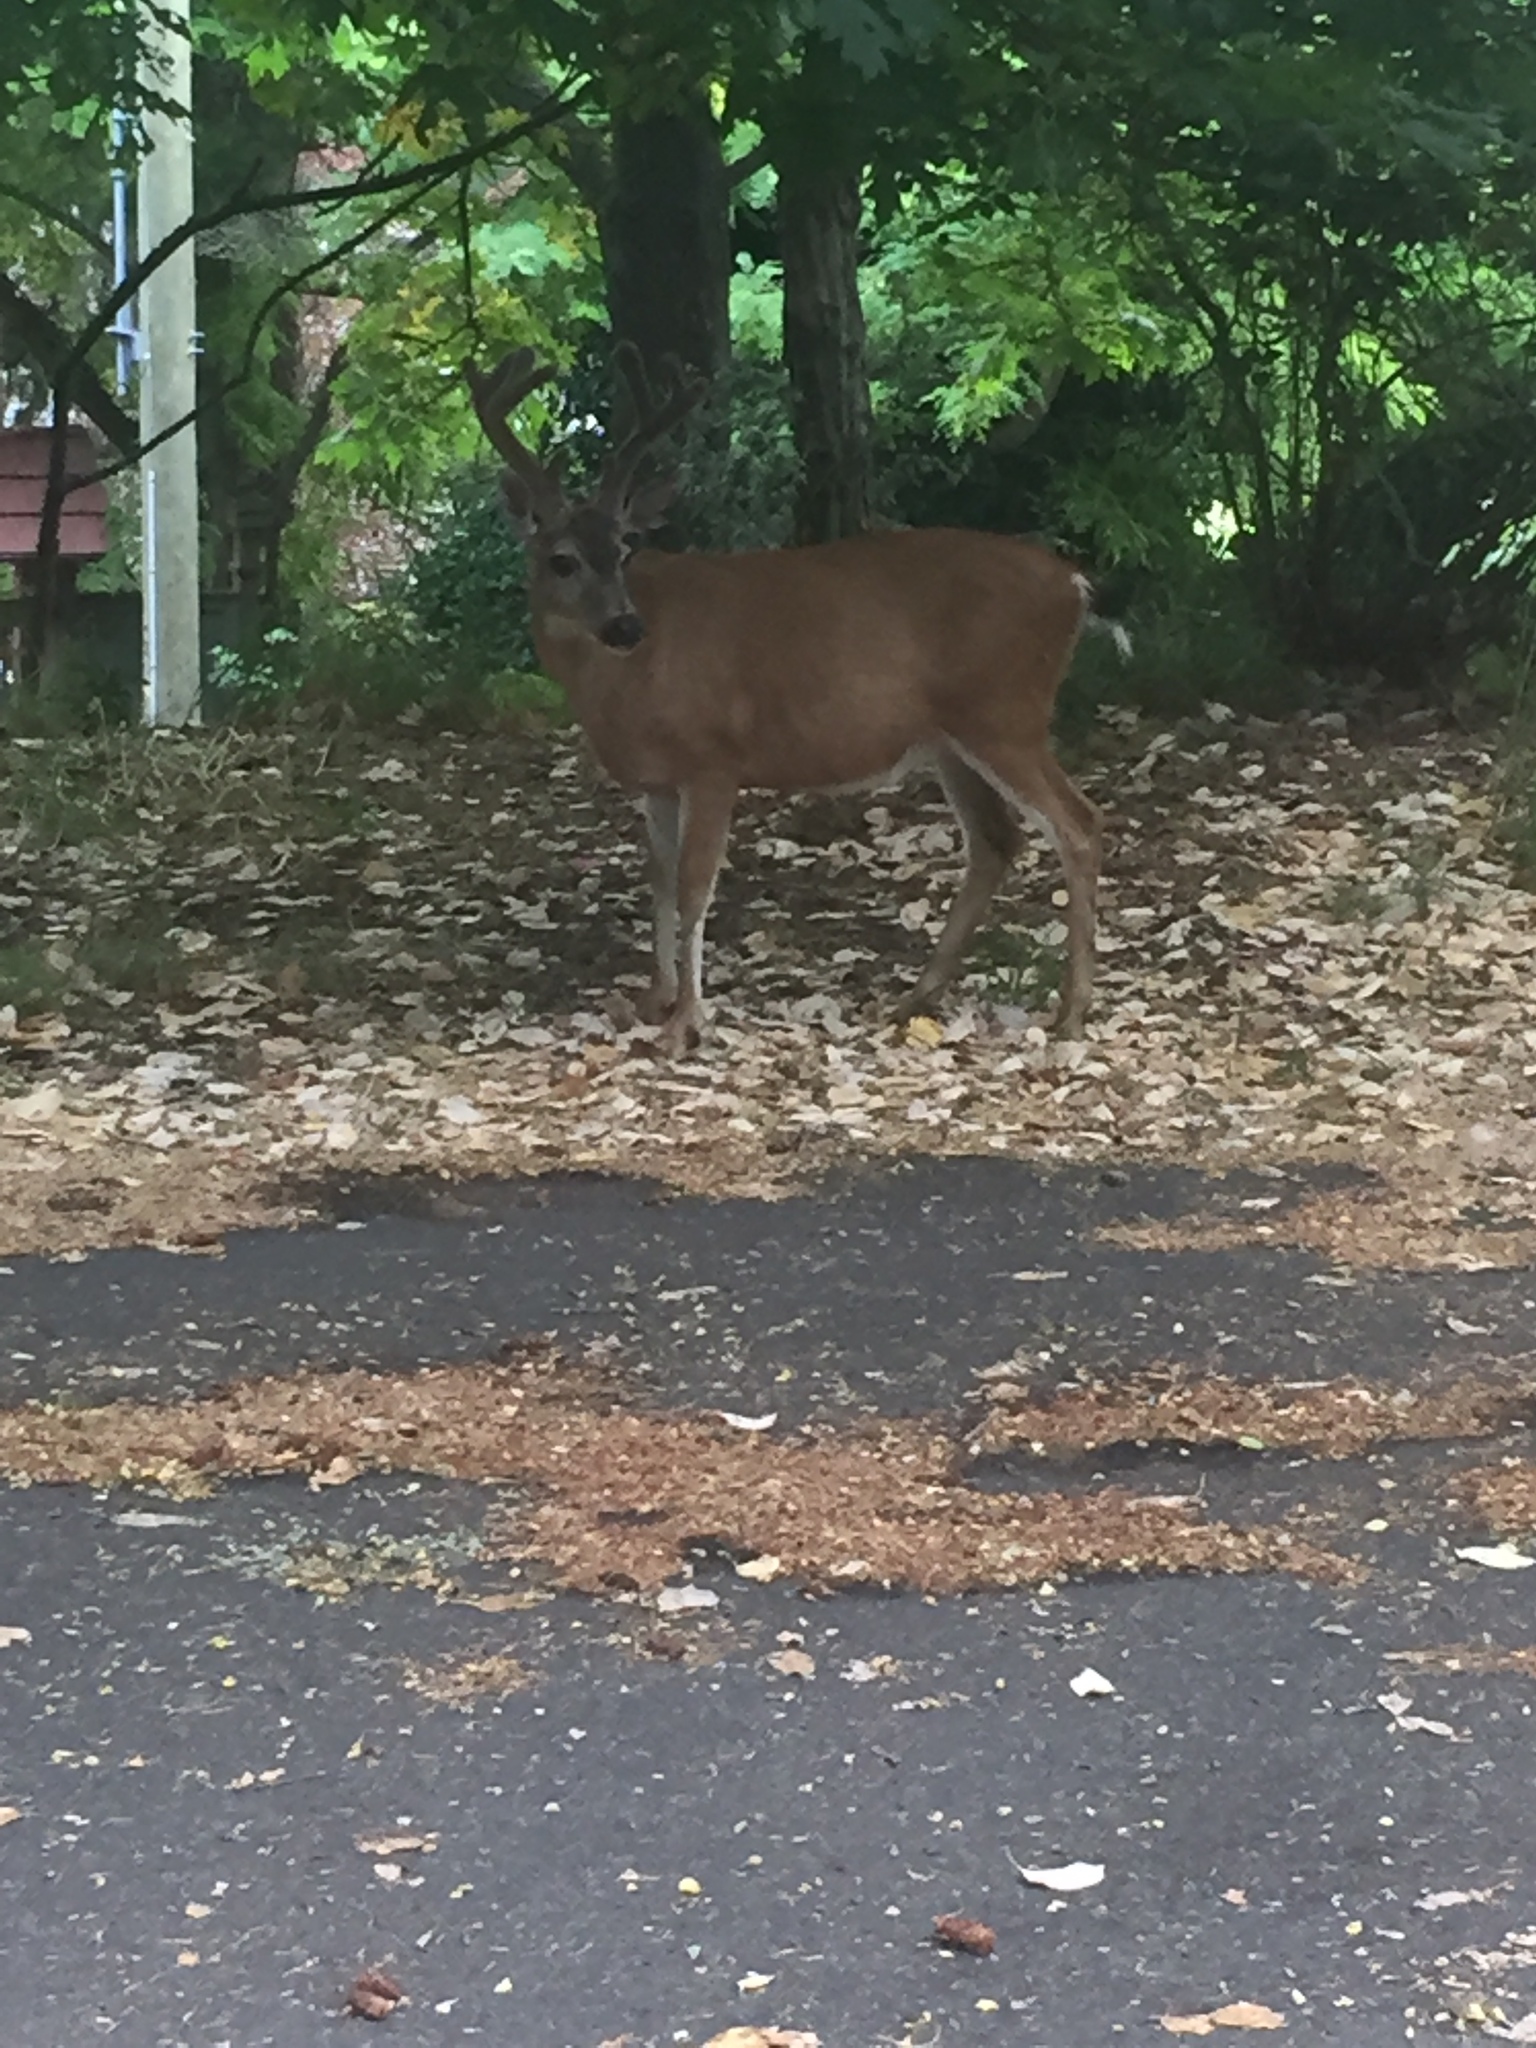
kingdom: Animalia
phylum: Chordata
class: Mammalia
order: Artiodactyla
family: Cervidae
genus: Odocoileus
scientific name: Odocoileus hemionus
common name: Mule deer
